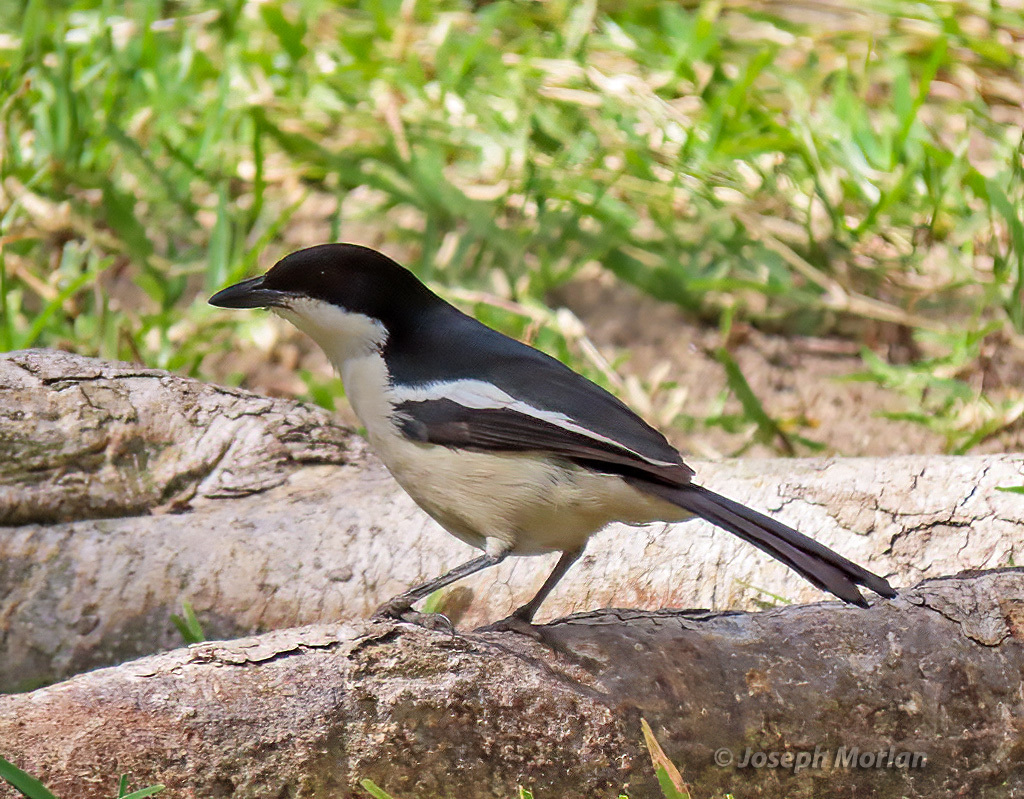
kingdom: Animalia
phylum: Chordata
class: Aves
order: Passeriformes
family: Malaconotidae
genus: Laniarius
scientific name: Laniarius bicolor
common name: Swamp boubou
